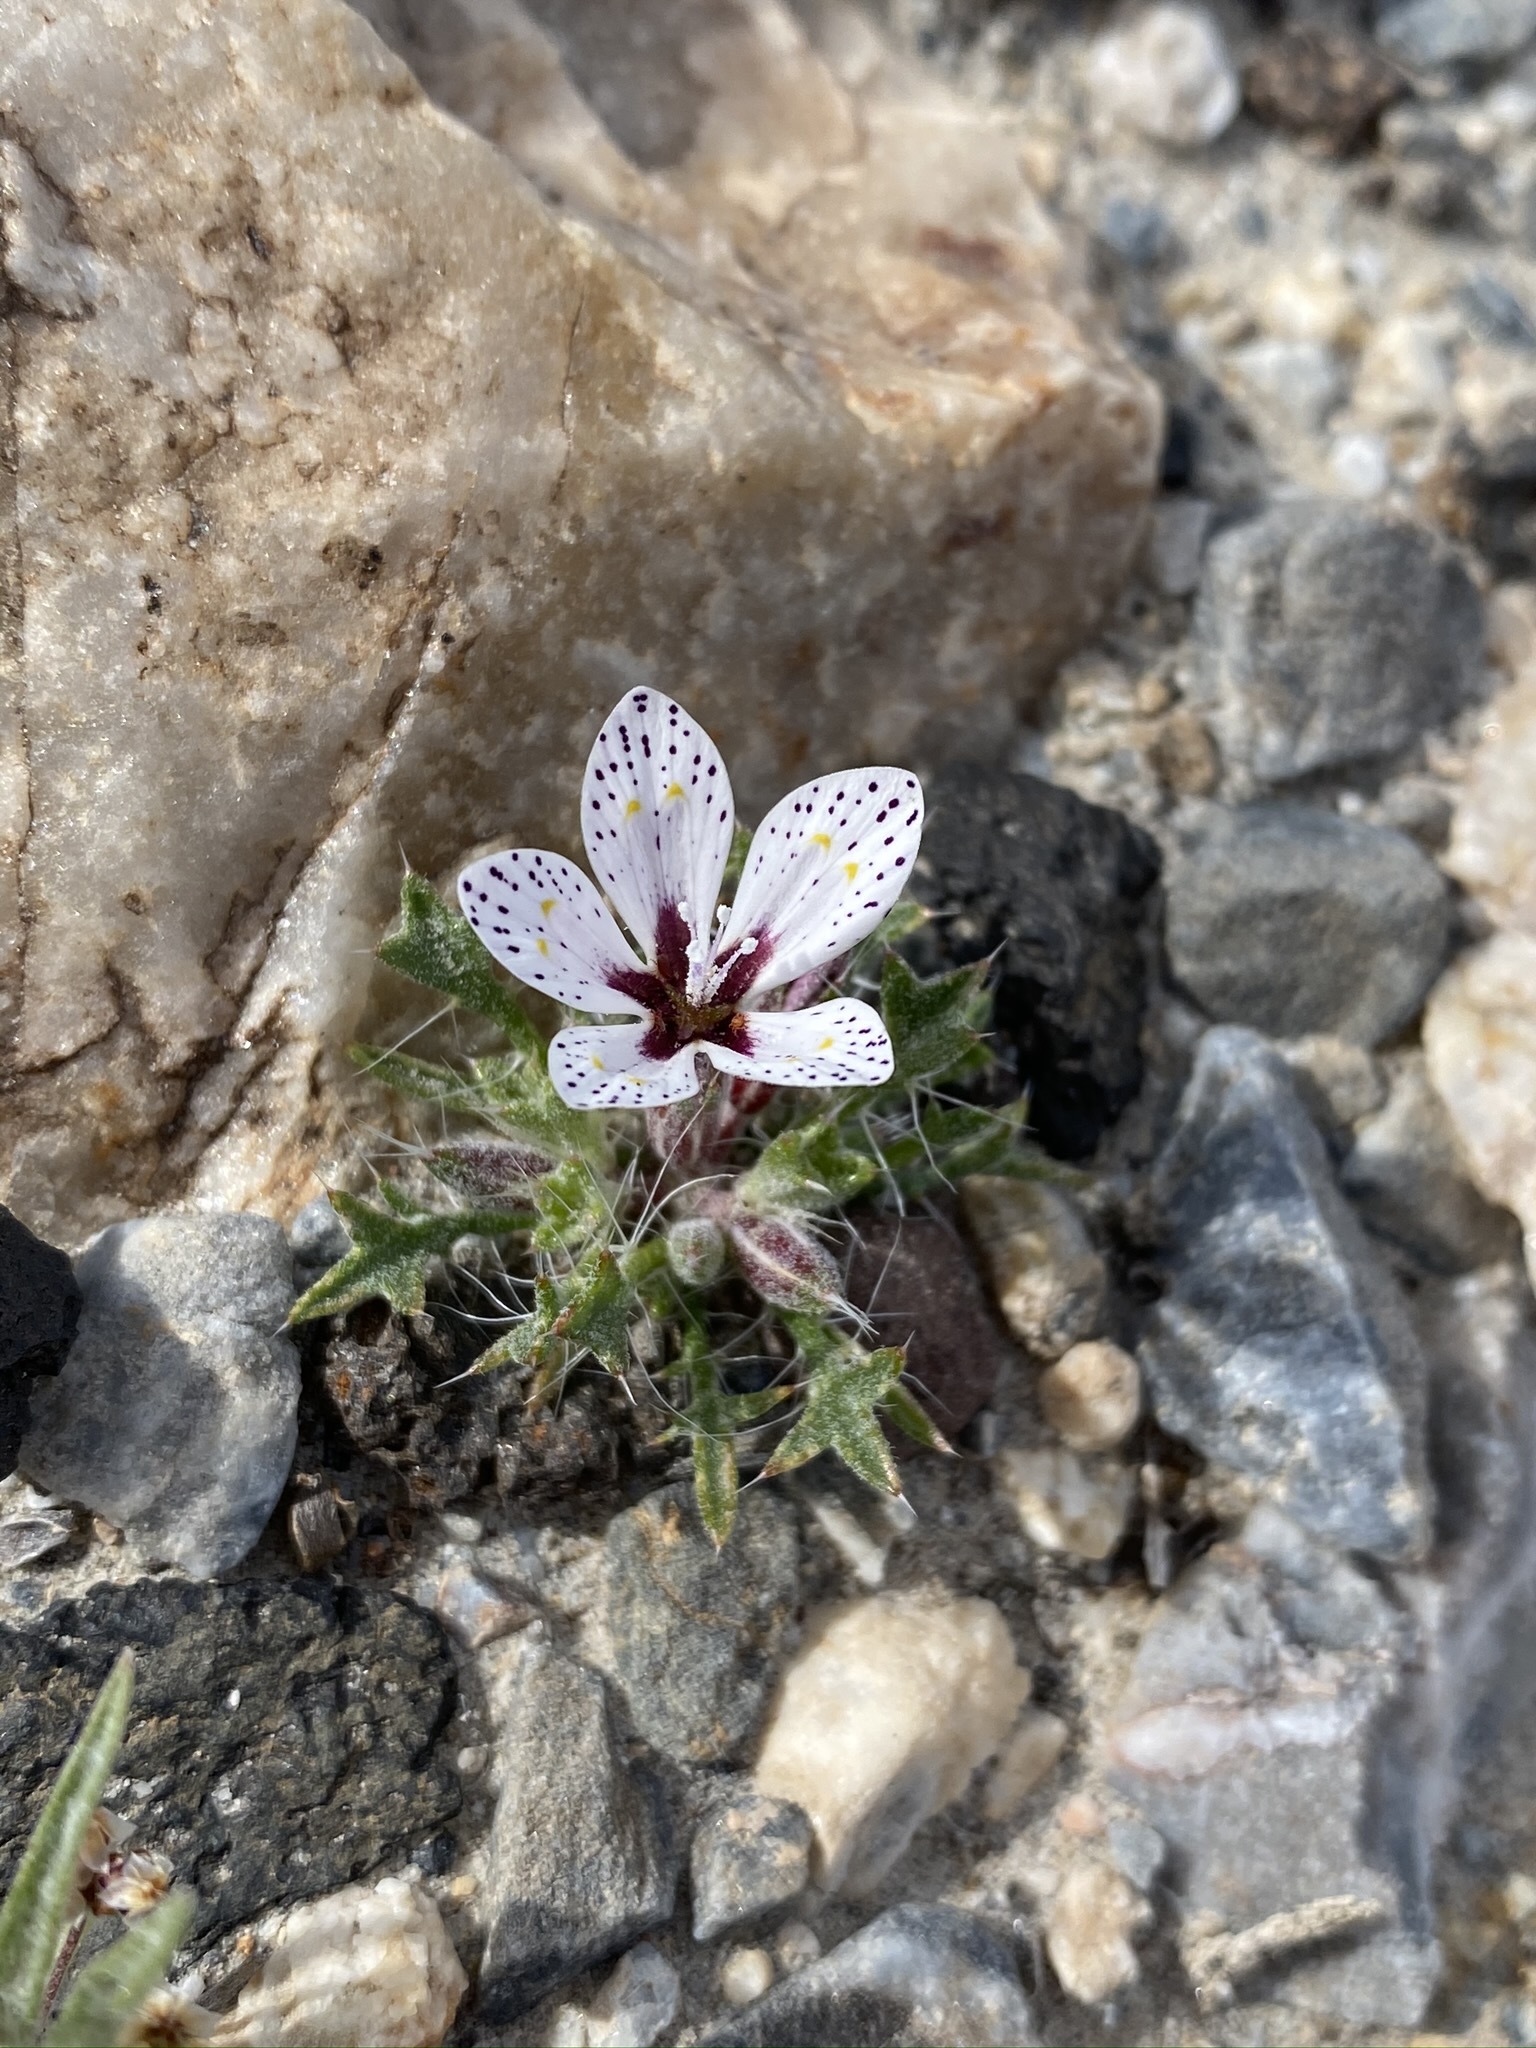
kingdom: Plantae
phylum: Tracheophyta
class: Magnoliopsida
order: Ericales
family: Polemoniaceae
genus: Langloisia
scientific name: Langloisia setosissima
